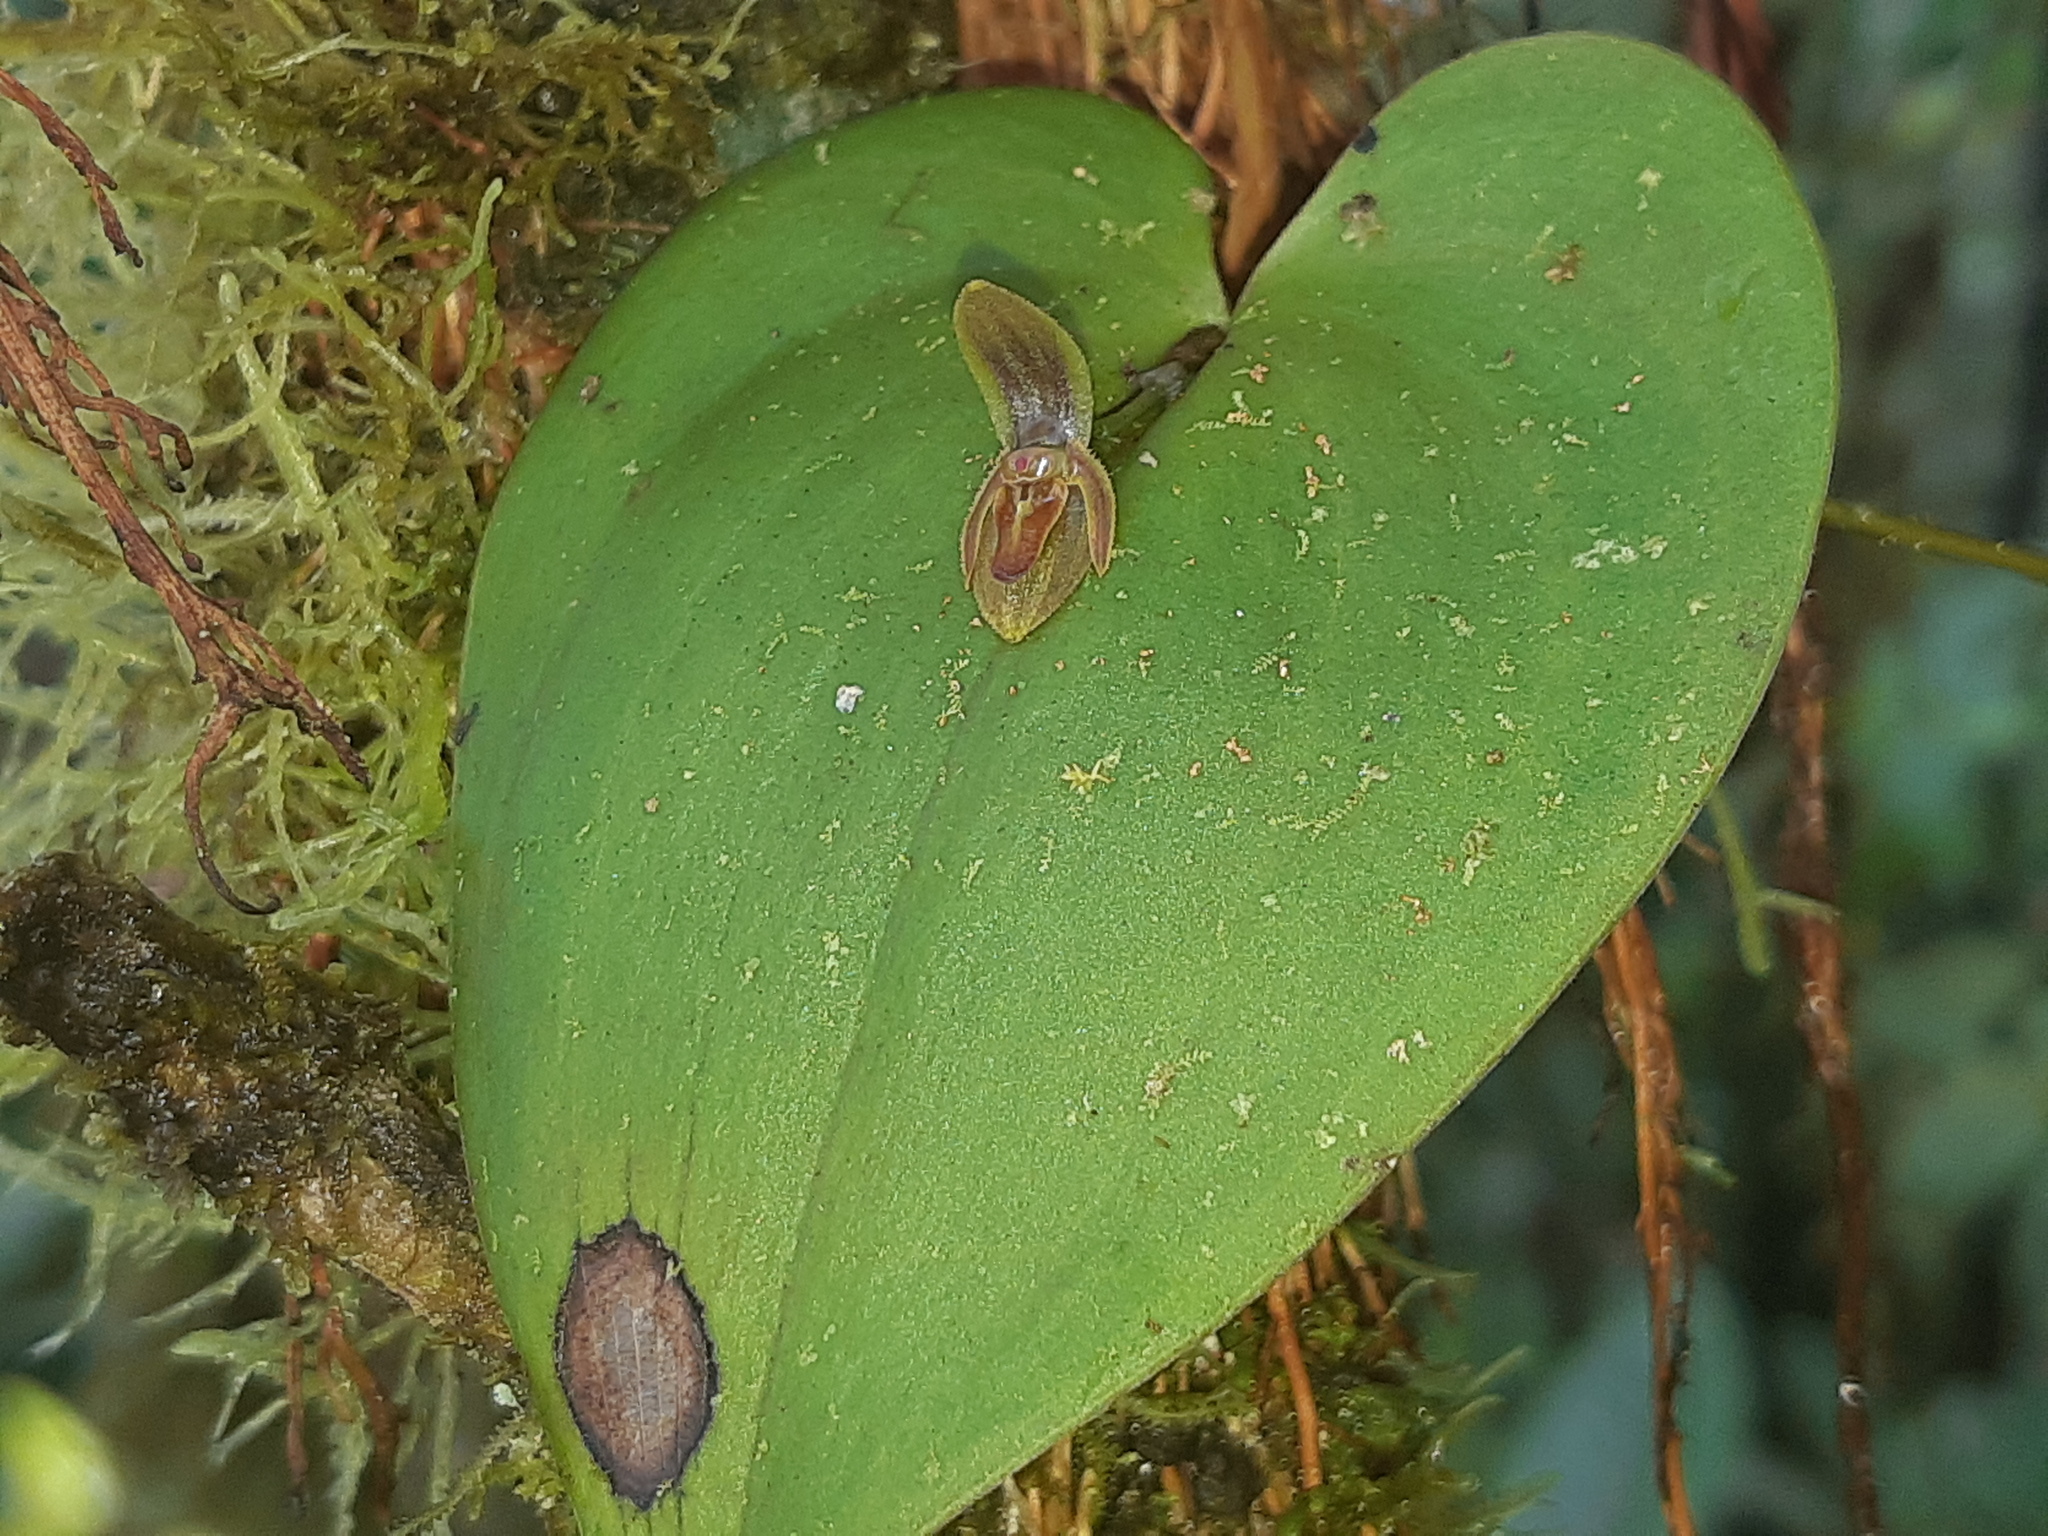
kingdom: Plantae
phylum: Tracheophyta
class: Liliopsida
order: Asparagales
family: Orchidaceae
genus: Pleurothallis
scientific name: Pleurothallis fossulata
